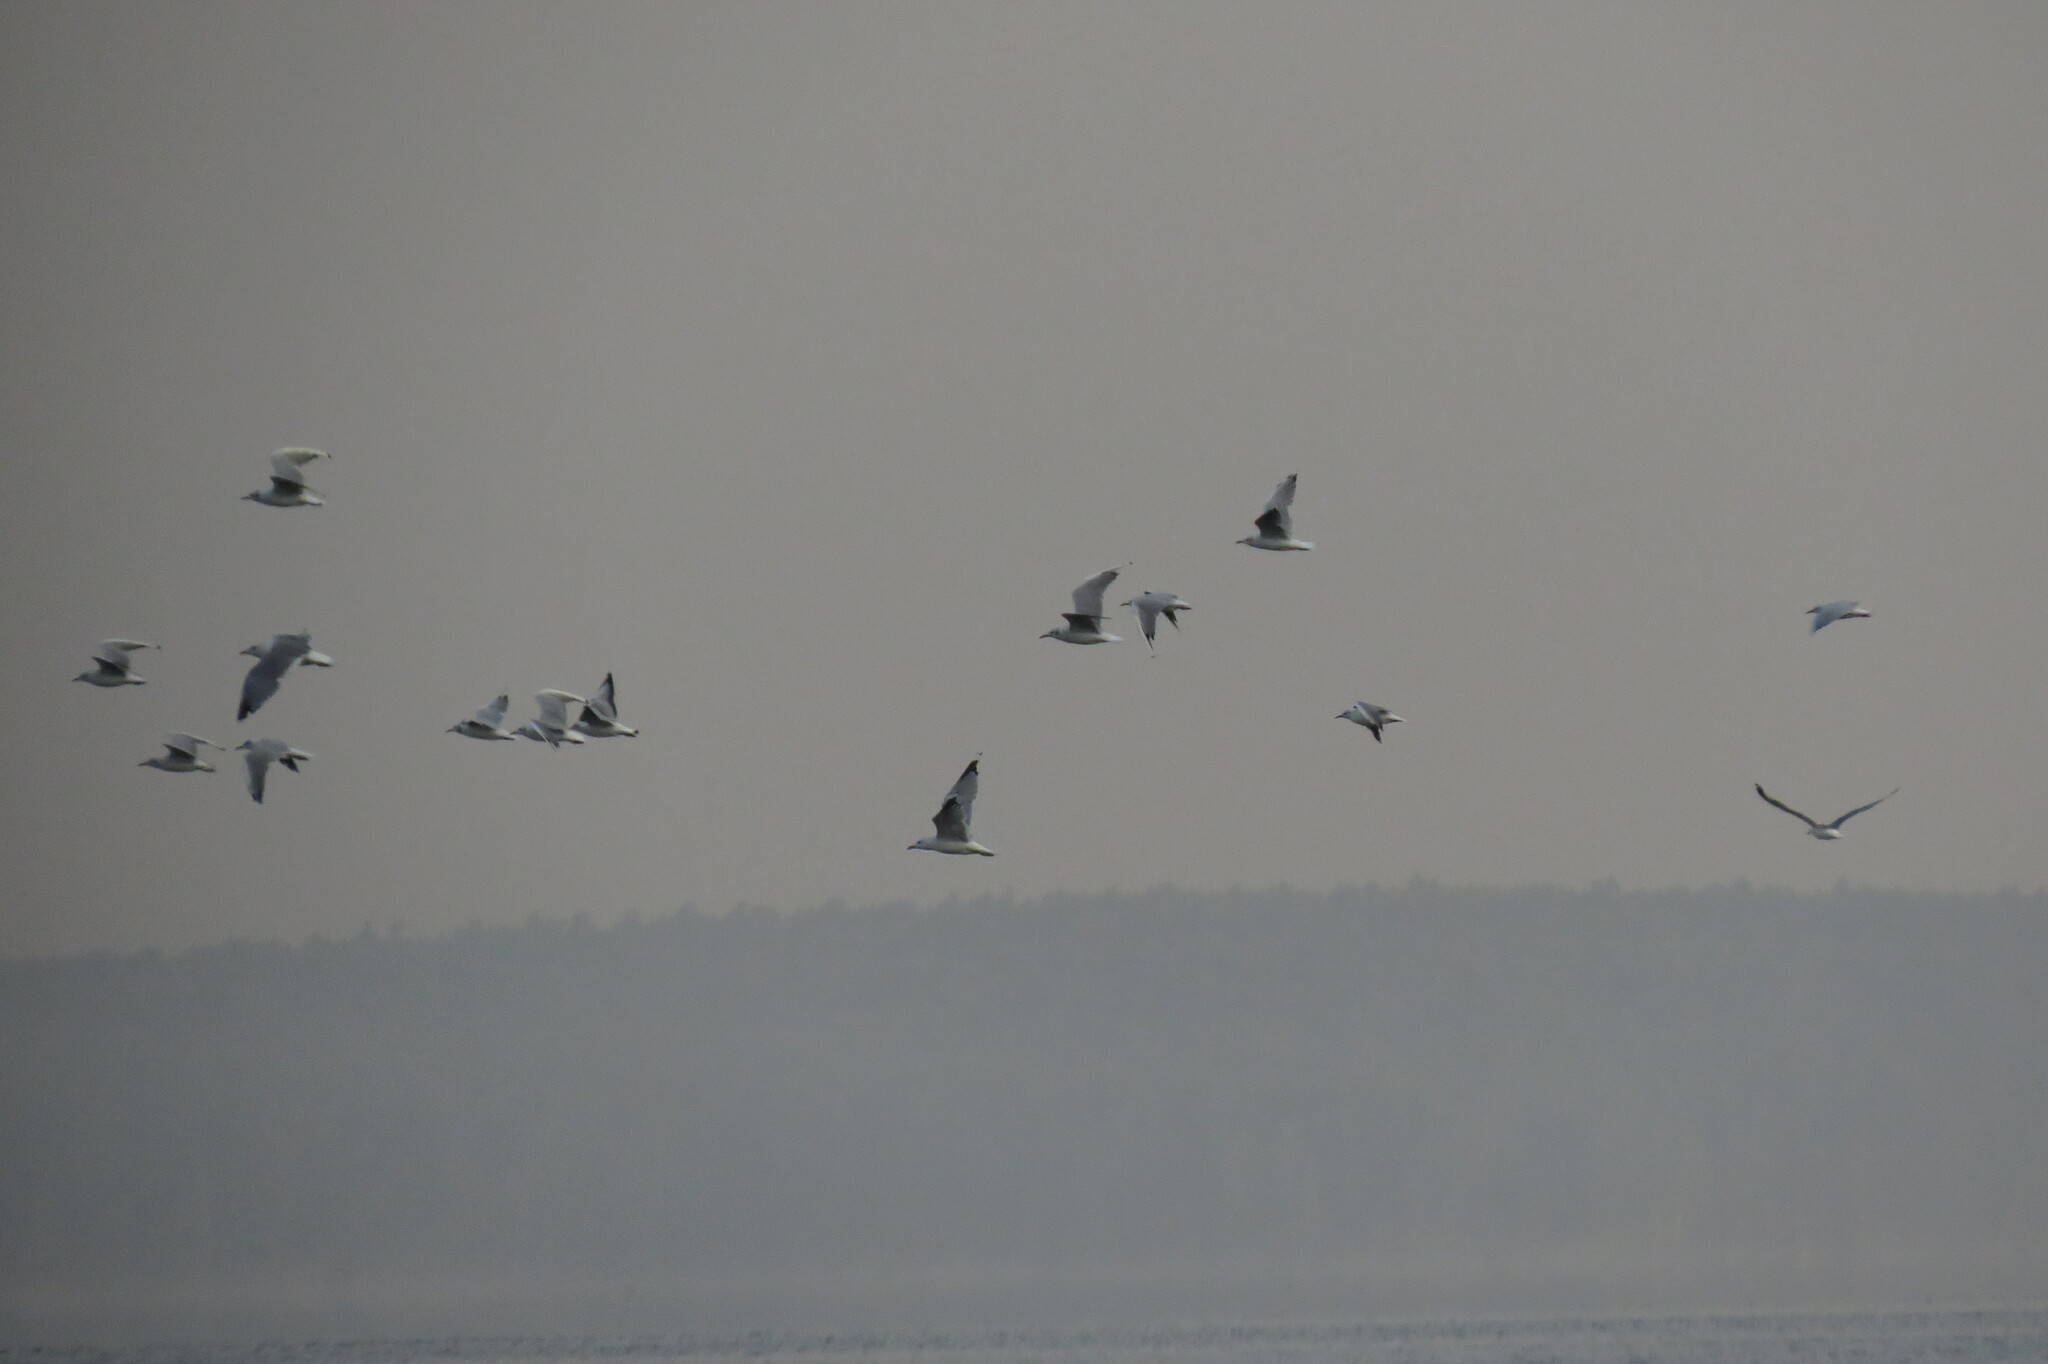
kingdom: Animalia
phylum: Chordata
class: Aves
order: Charadriiformes
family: Laridae
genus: Chroicocephalus
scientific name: Chroicocephalus ridibundus
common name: Black-headed gull
